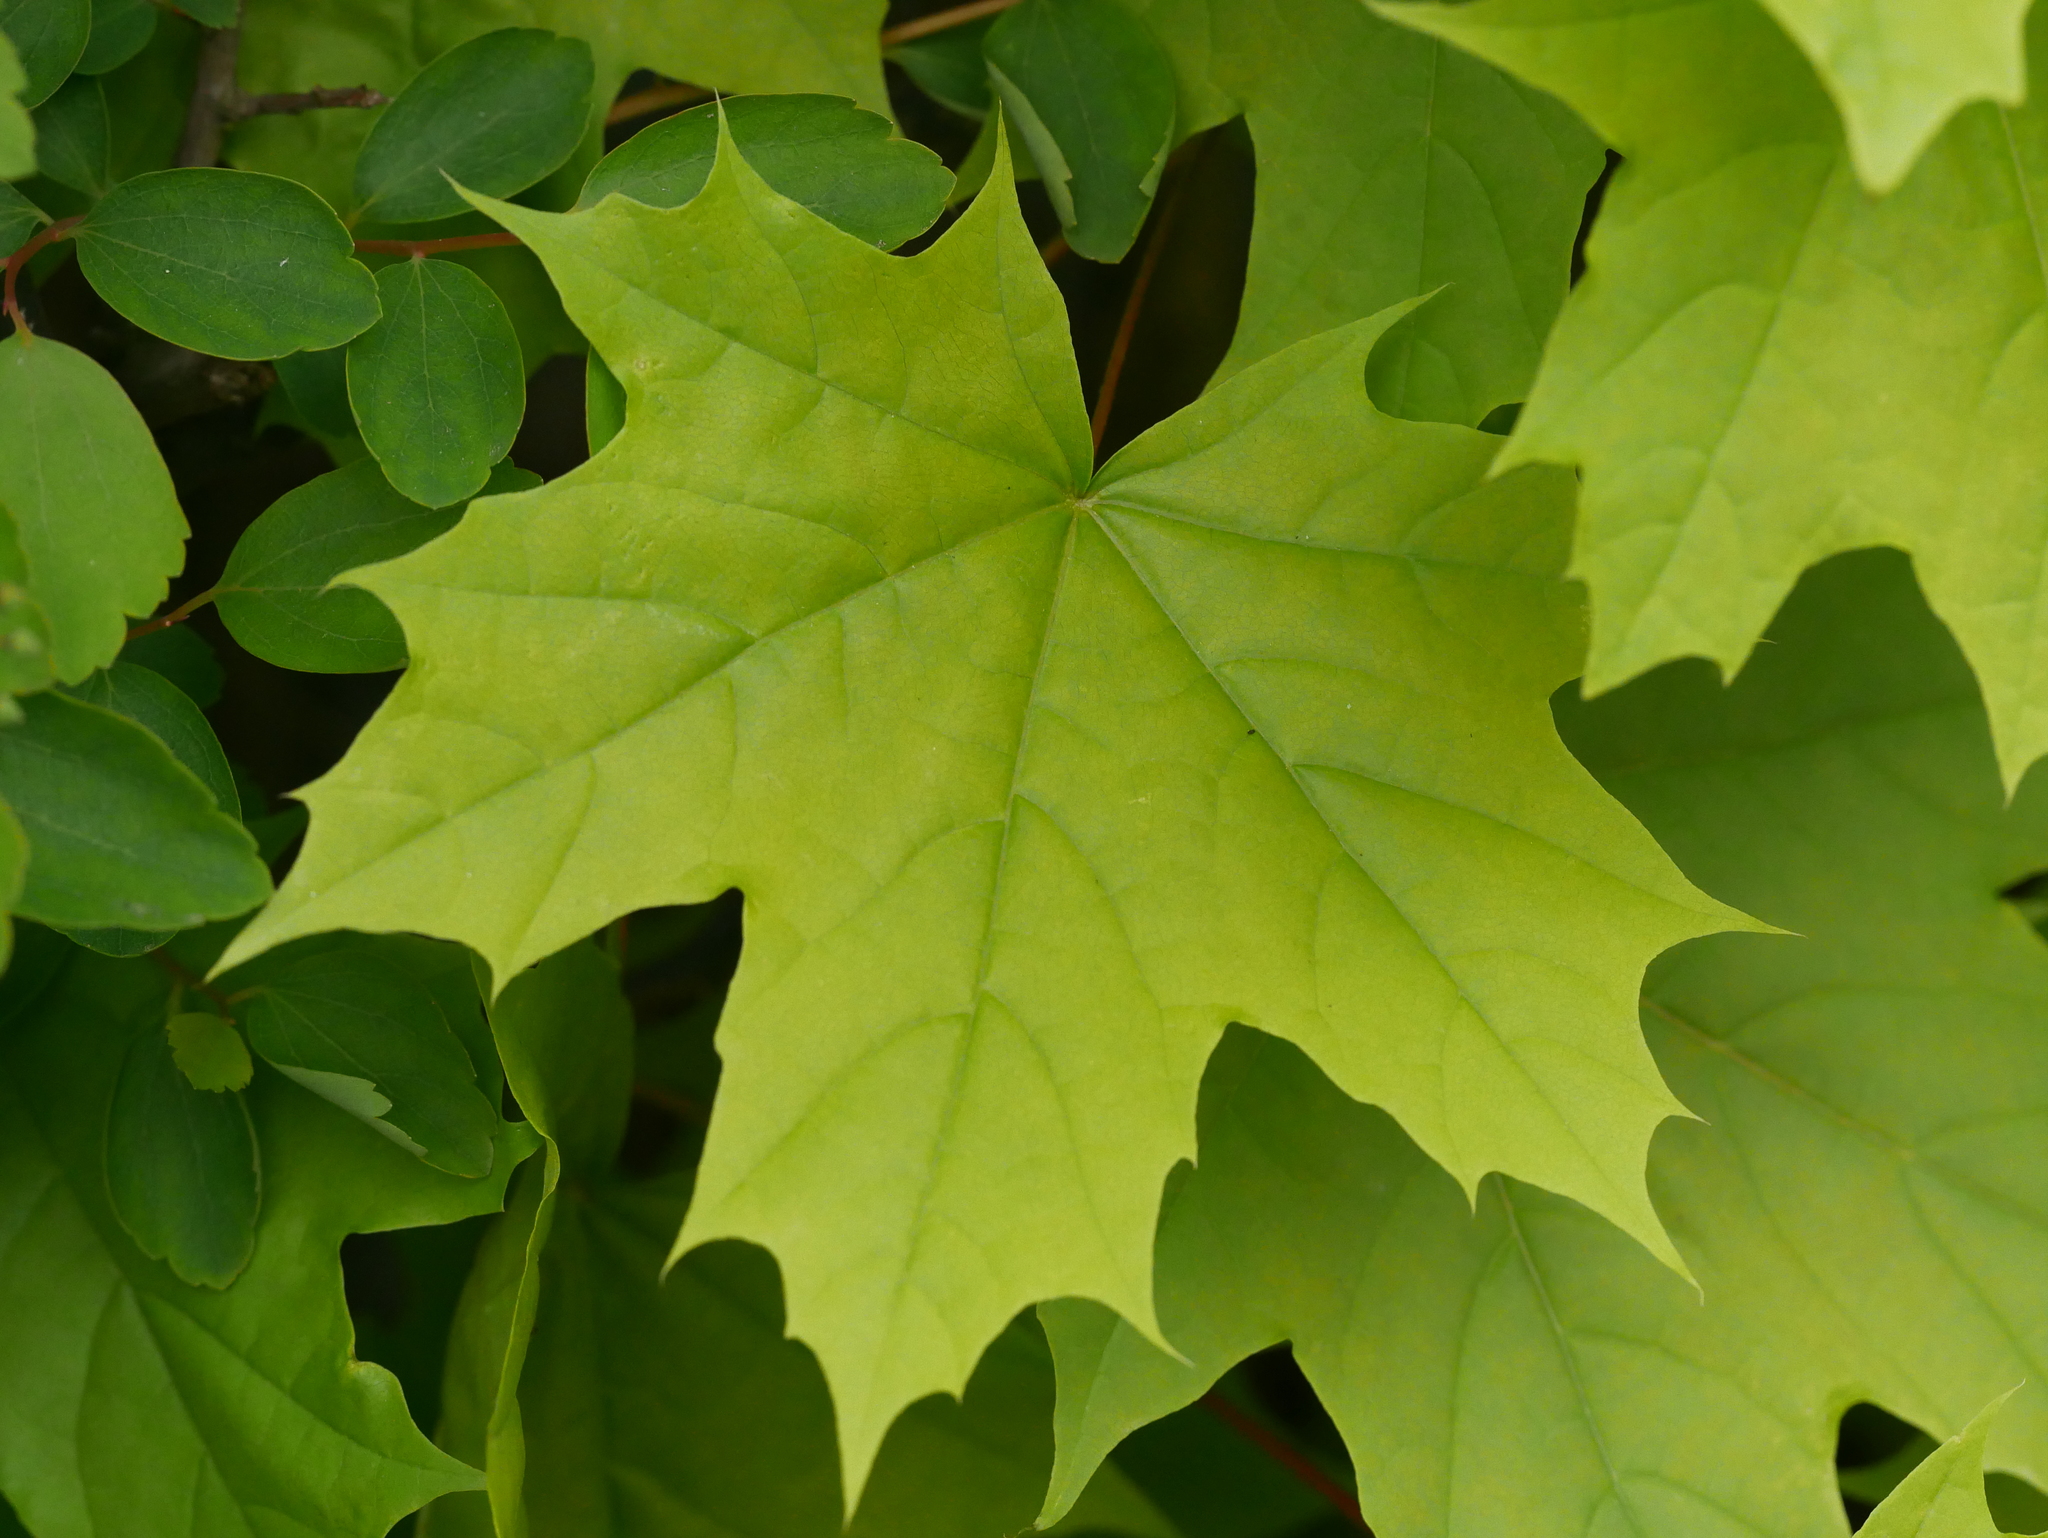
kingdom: Plantae
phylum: Tracheophyta
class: Magnoliopsida
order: Sapindales
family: Sapindaceae
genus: Acer
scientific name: Acer platanoides
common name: Norway maple
